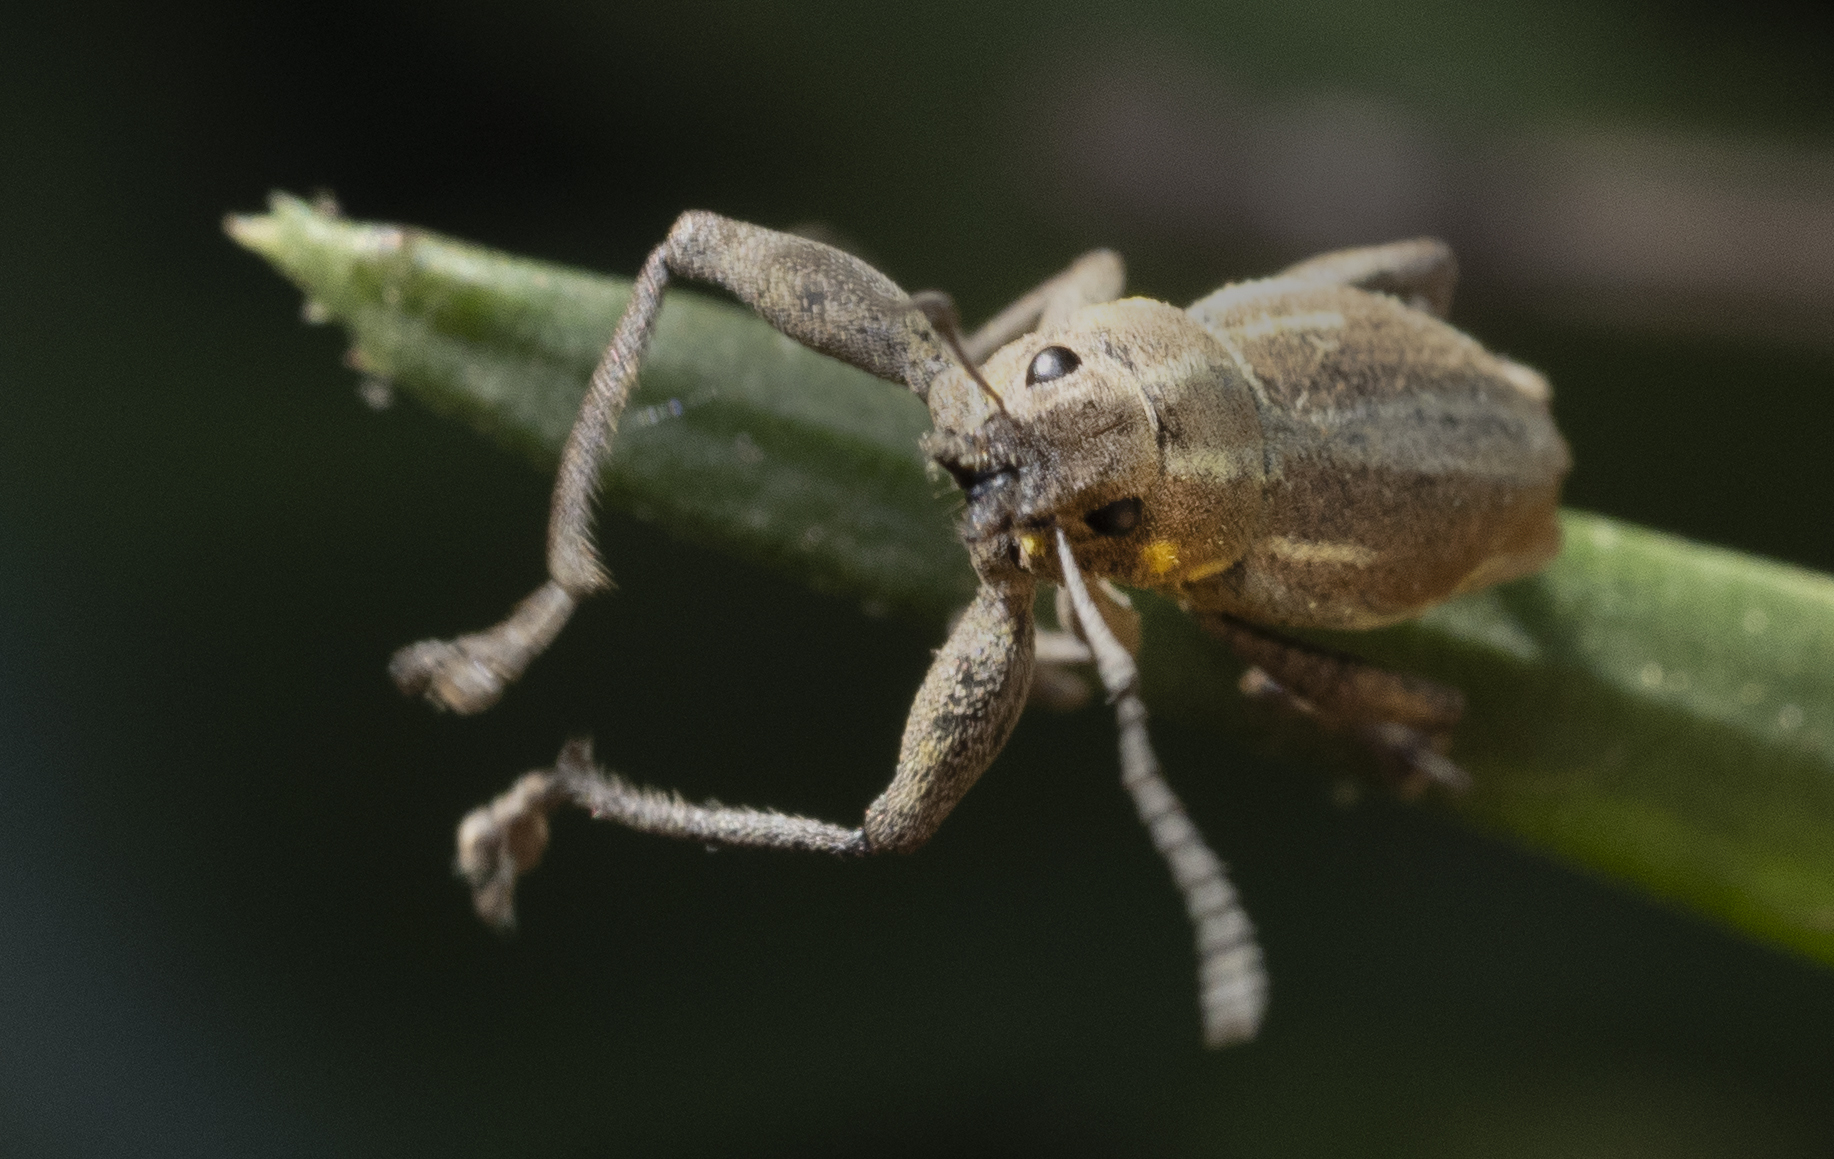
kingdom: Animalia
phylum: Arthropoda
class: Insecta
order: Coleoptera
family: Curculionidae
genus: Naupactus
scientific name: Naupactus xanthographus
